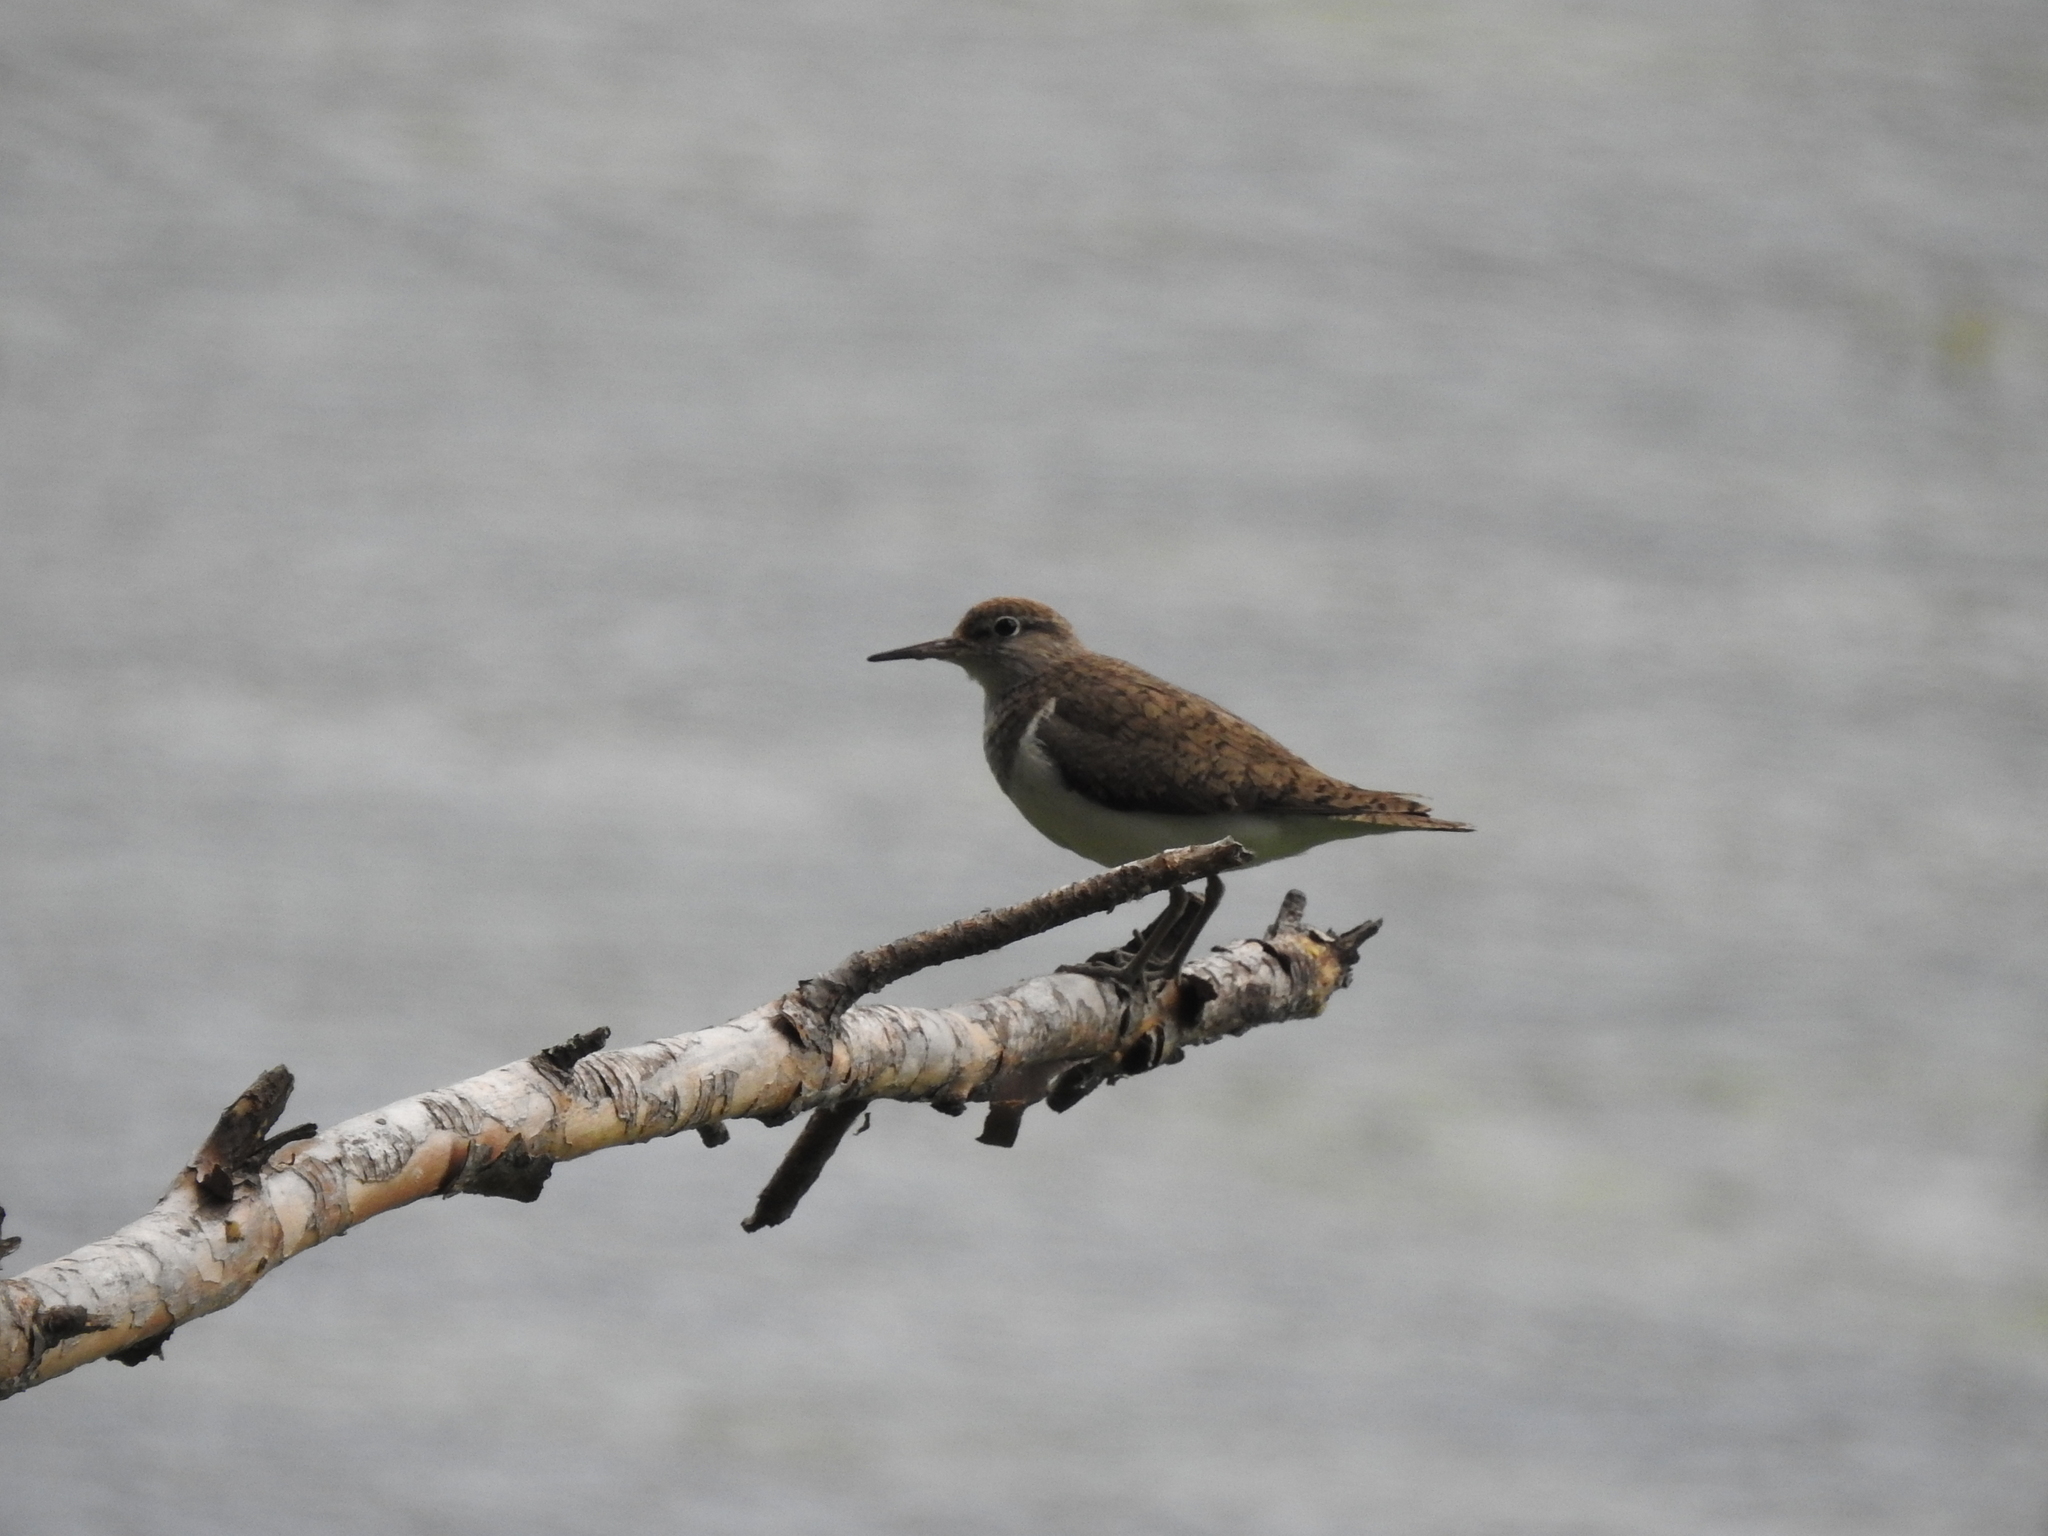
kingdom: Animalia
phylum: Chordata
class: Aves
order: Charadriiformes
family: Scolopacidae
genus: Actitis
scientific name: Actitis hypoleucos
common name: Common sandpiper
